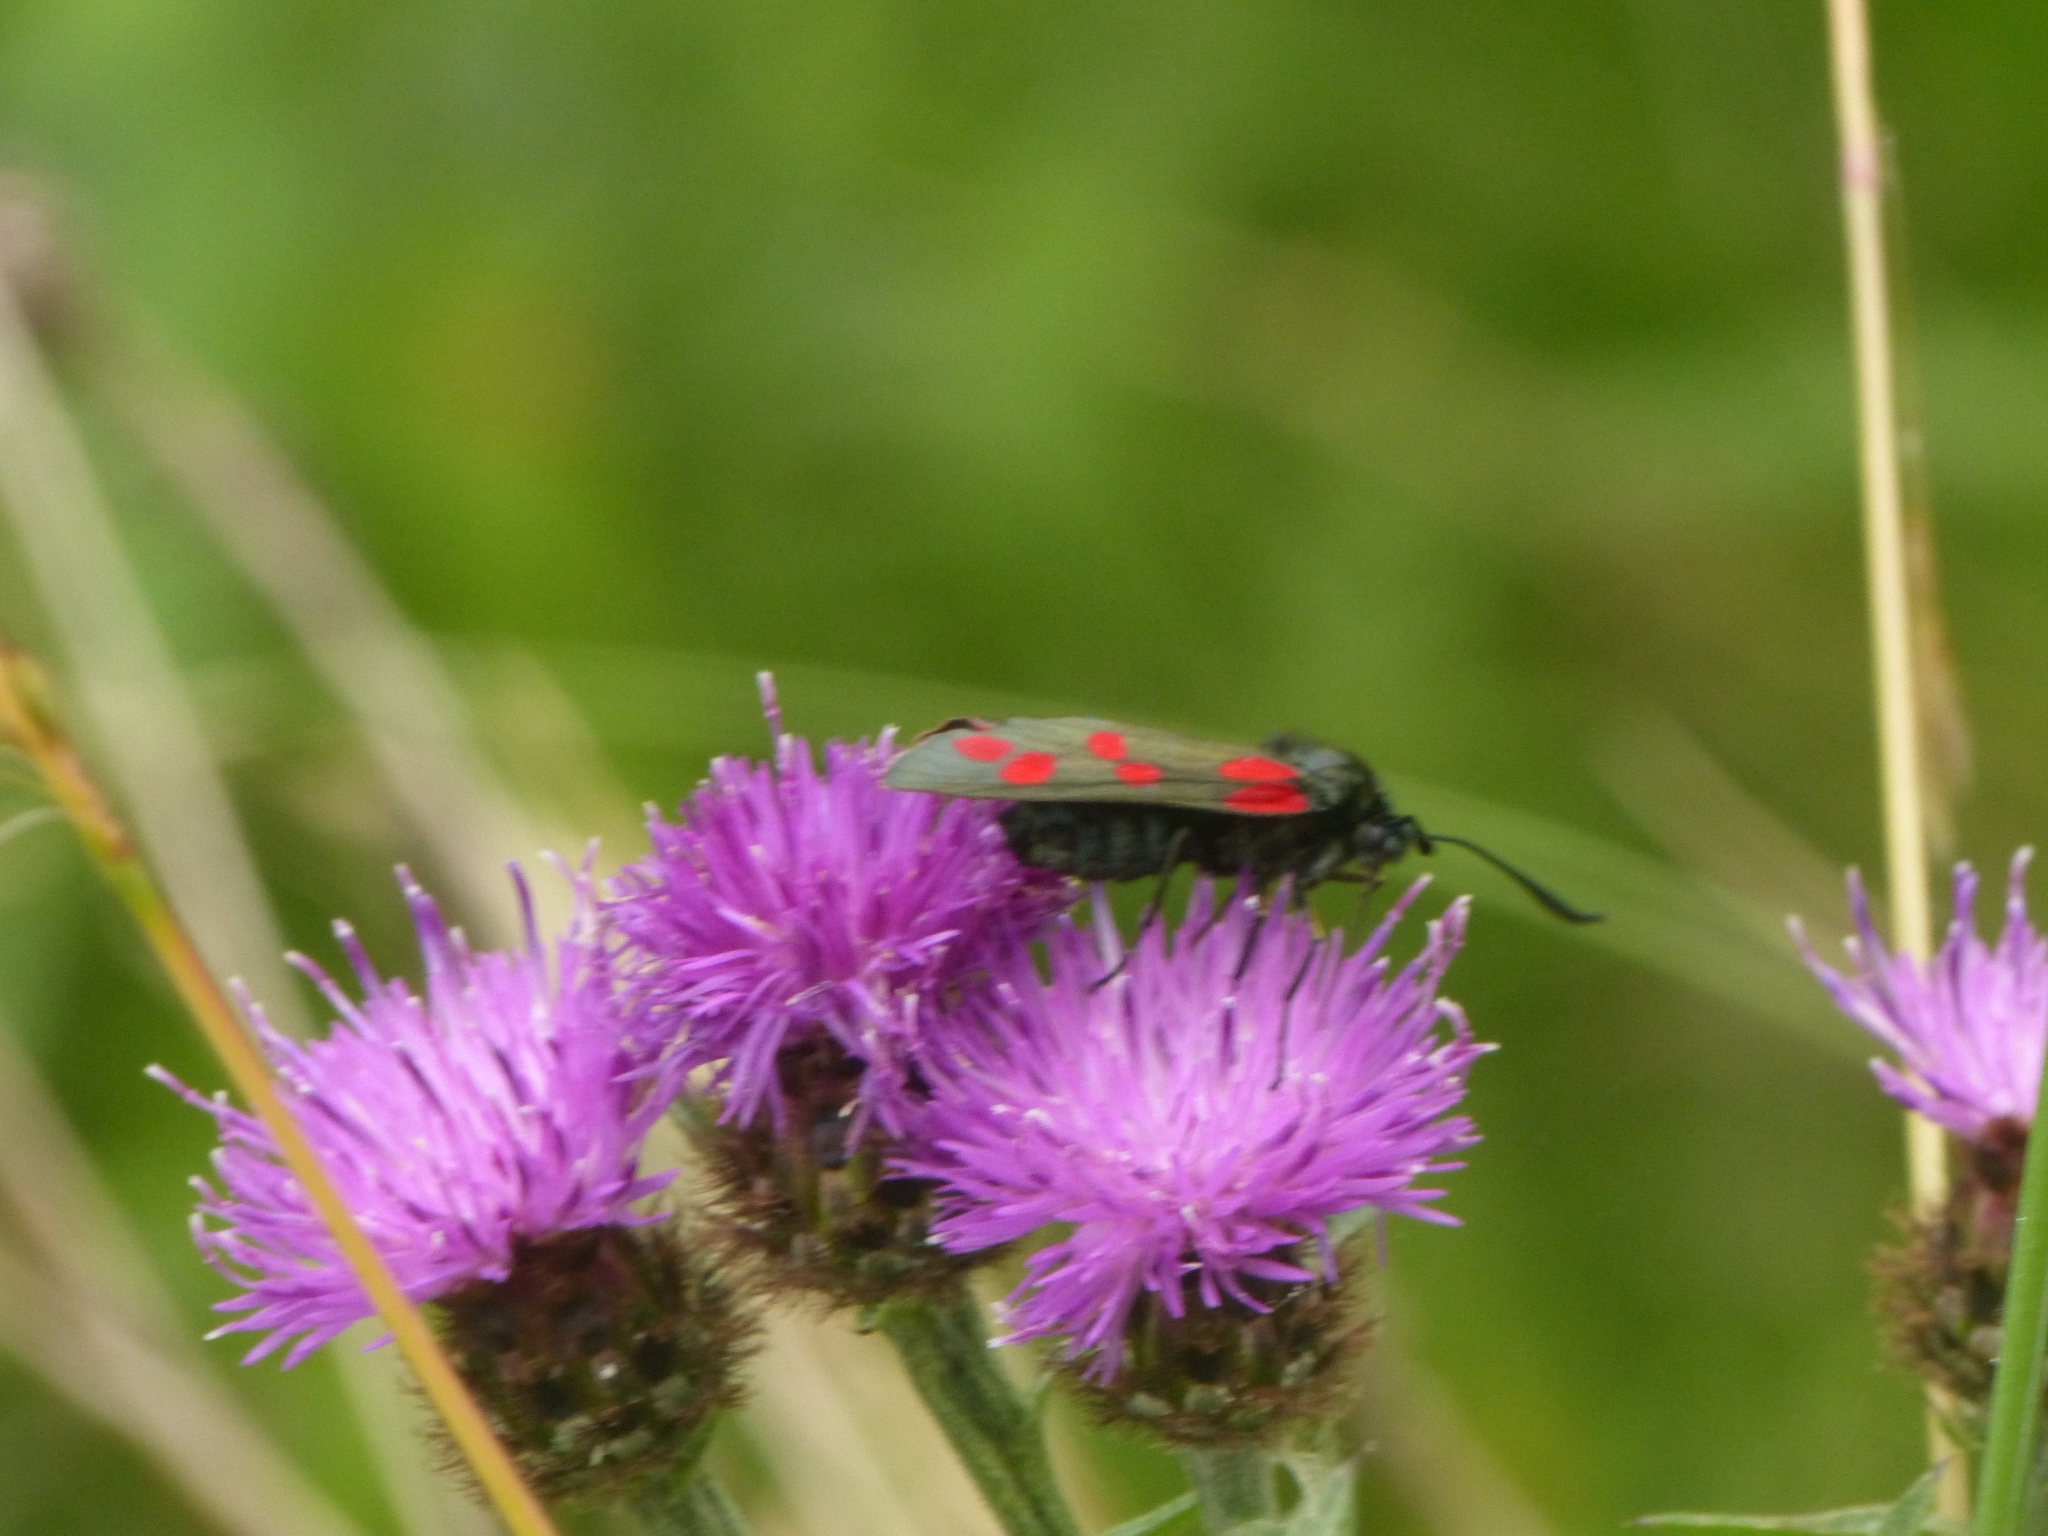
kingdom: Animalia
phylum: Arthropoda
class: Insecta
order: Lepidoptera
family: Zygaenidae
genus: Zygaena
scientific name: Zygaena filipendulae
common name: Six-spot burnet
